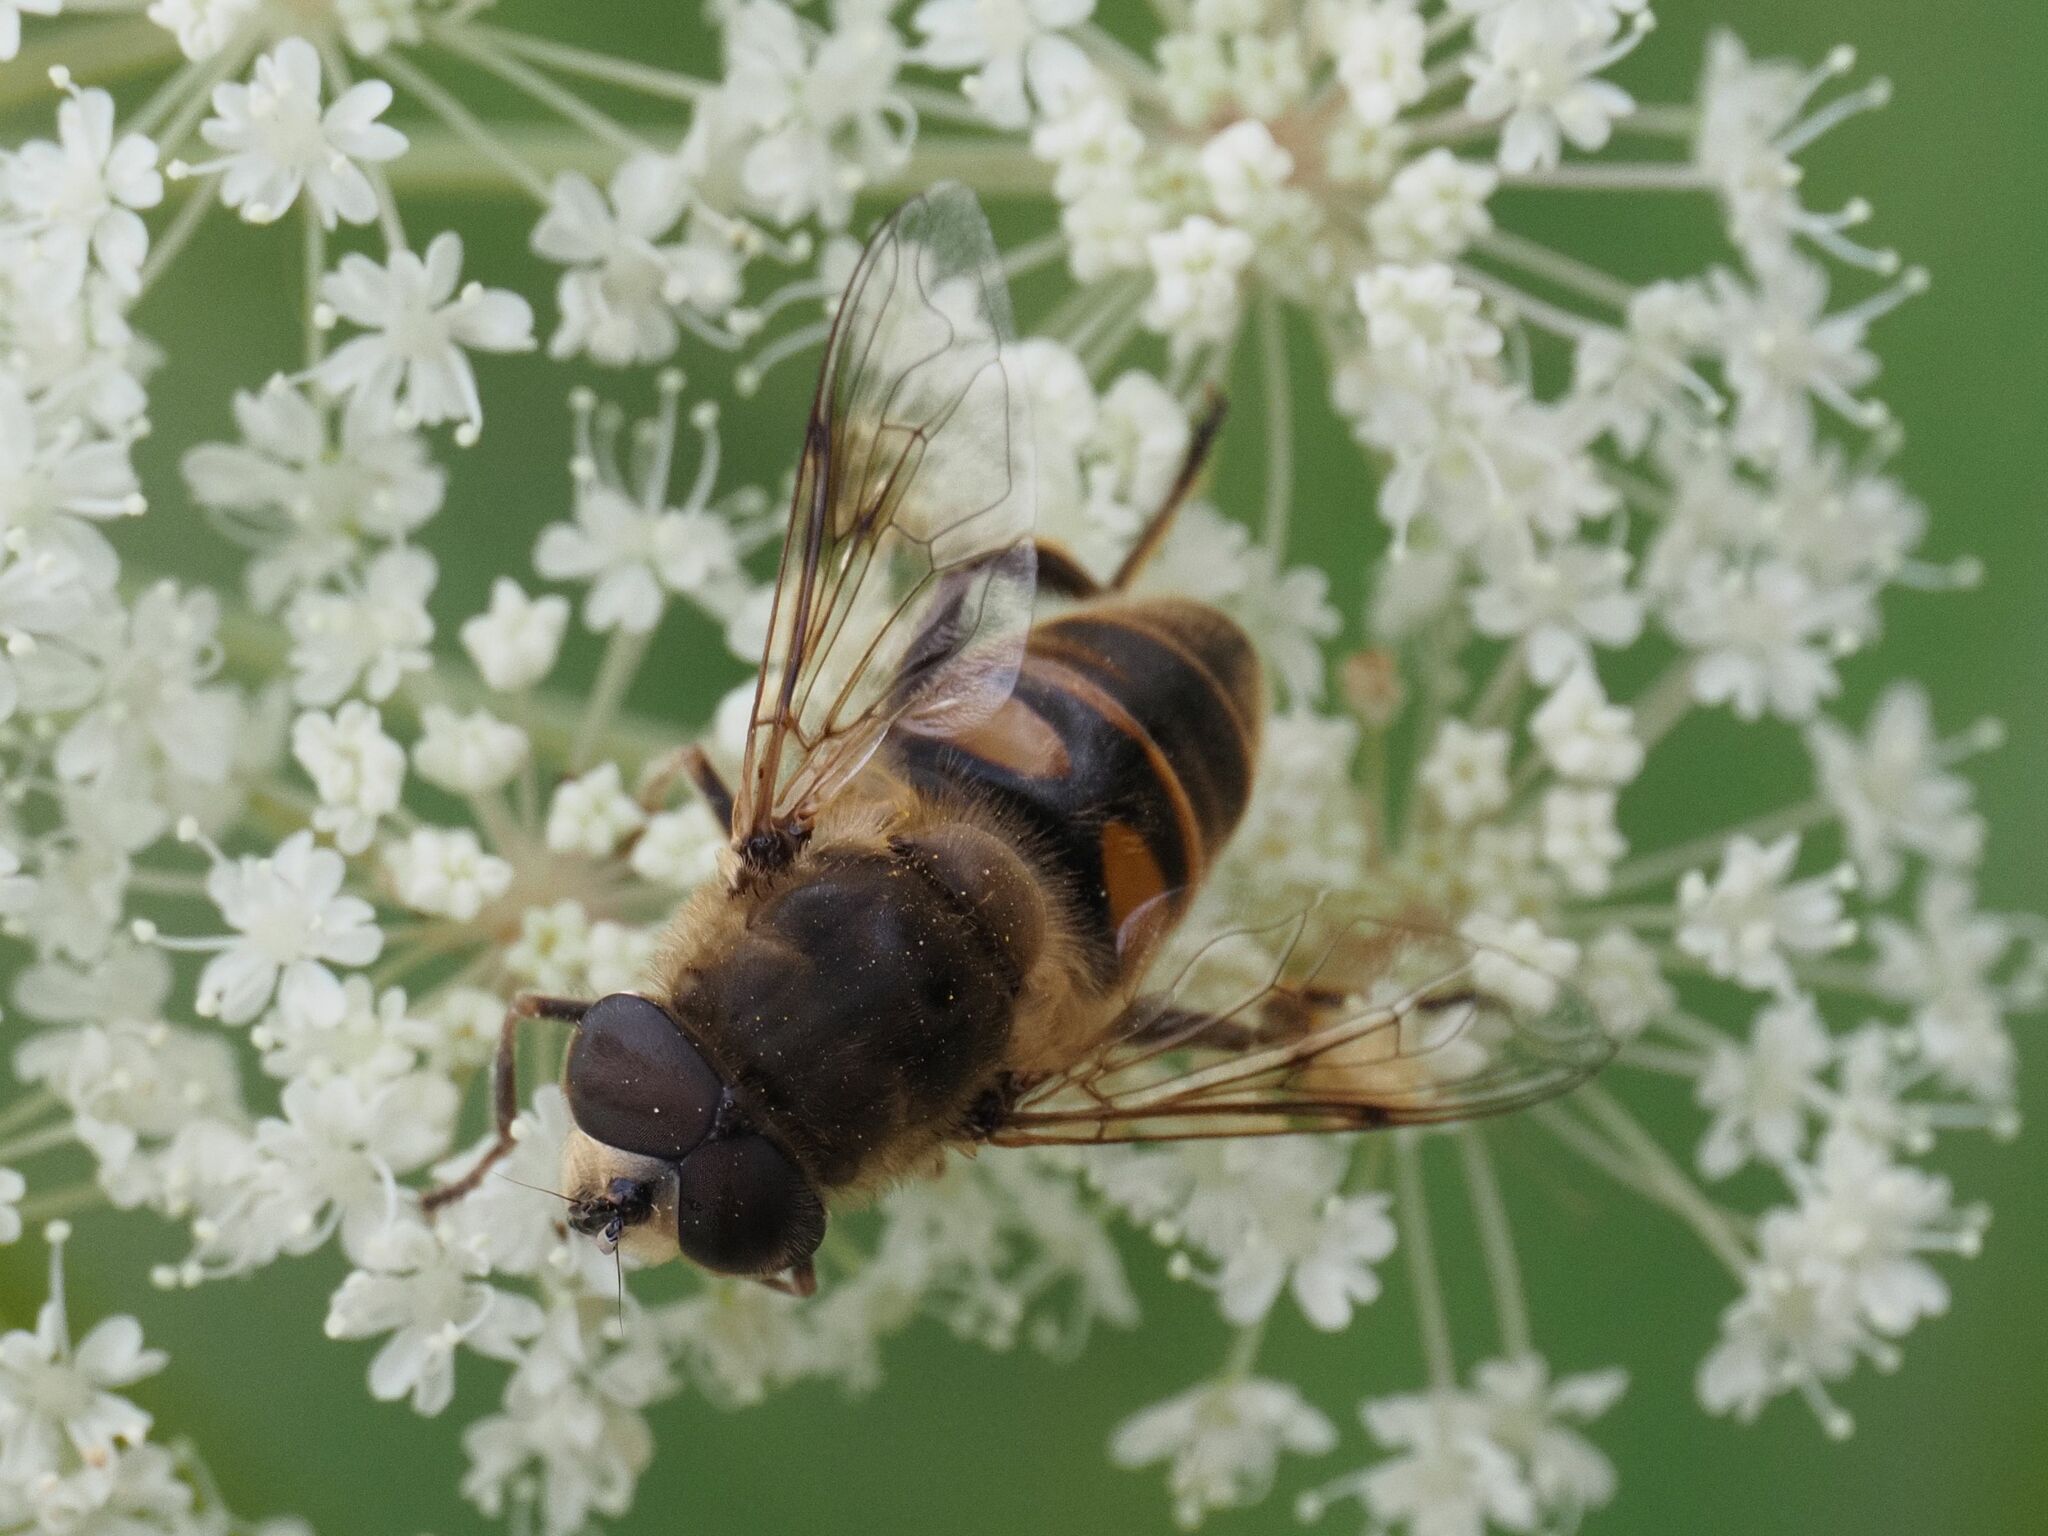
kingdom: Animalia
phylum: Arthropoda
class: Insecta
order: Diptera
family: Syrphidae
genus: Eristalis
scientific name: Eristalis tenax
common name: Drone fly
